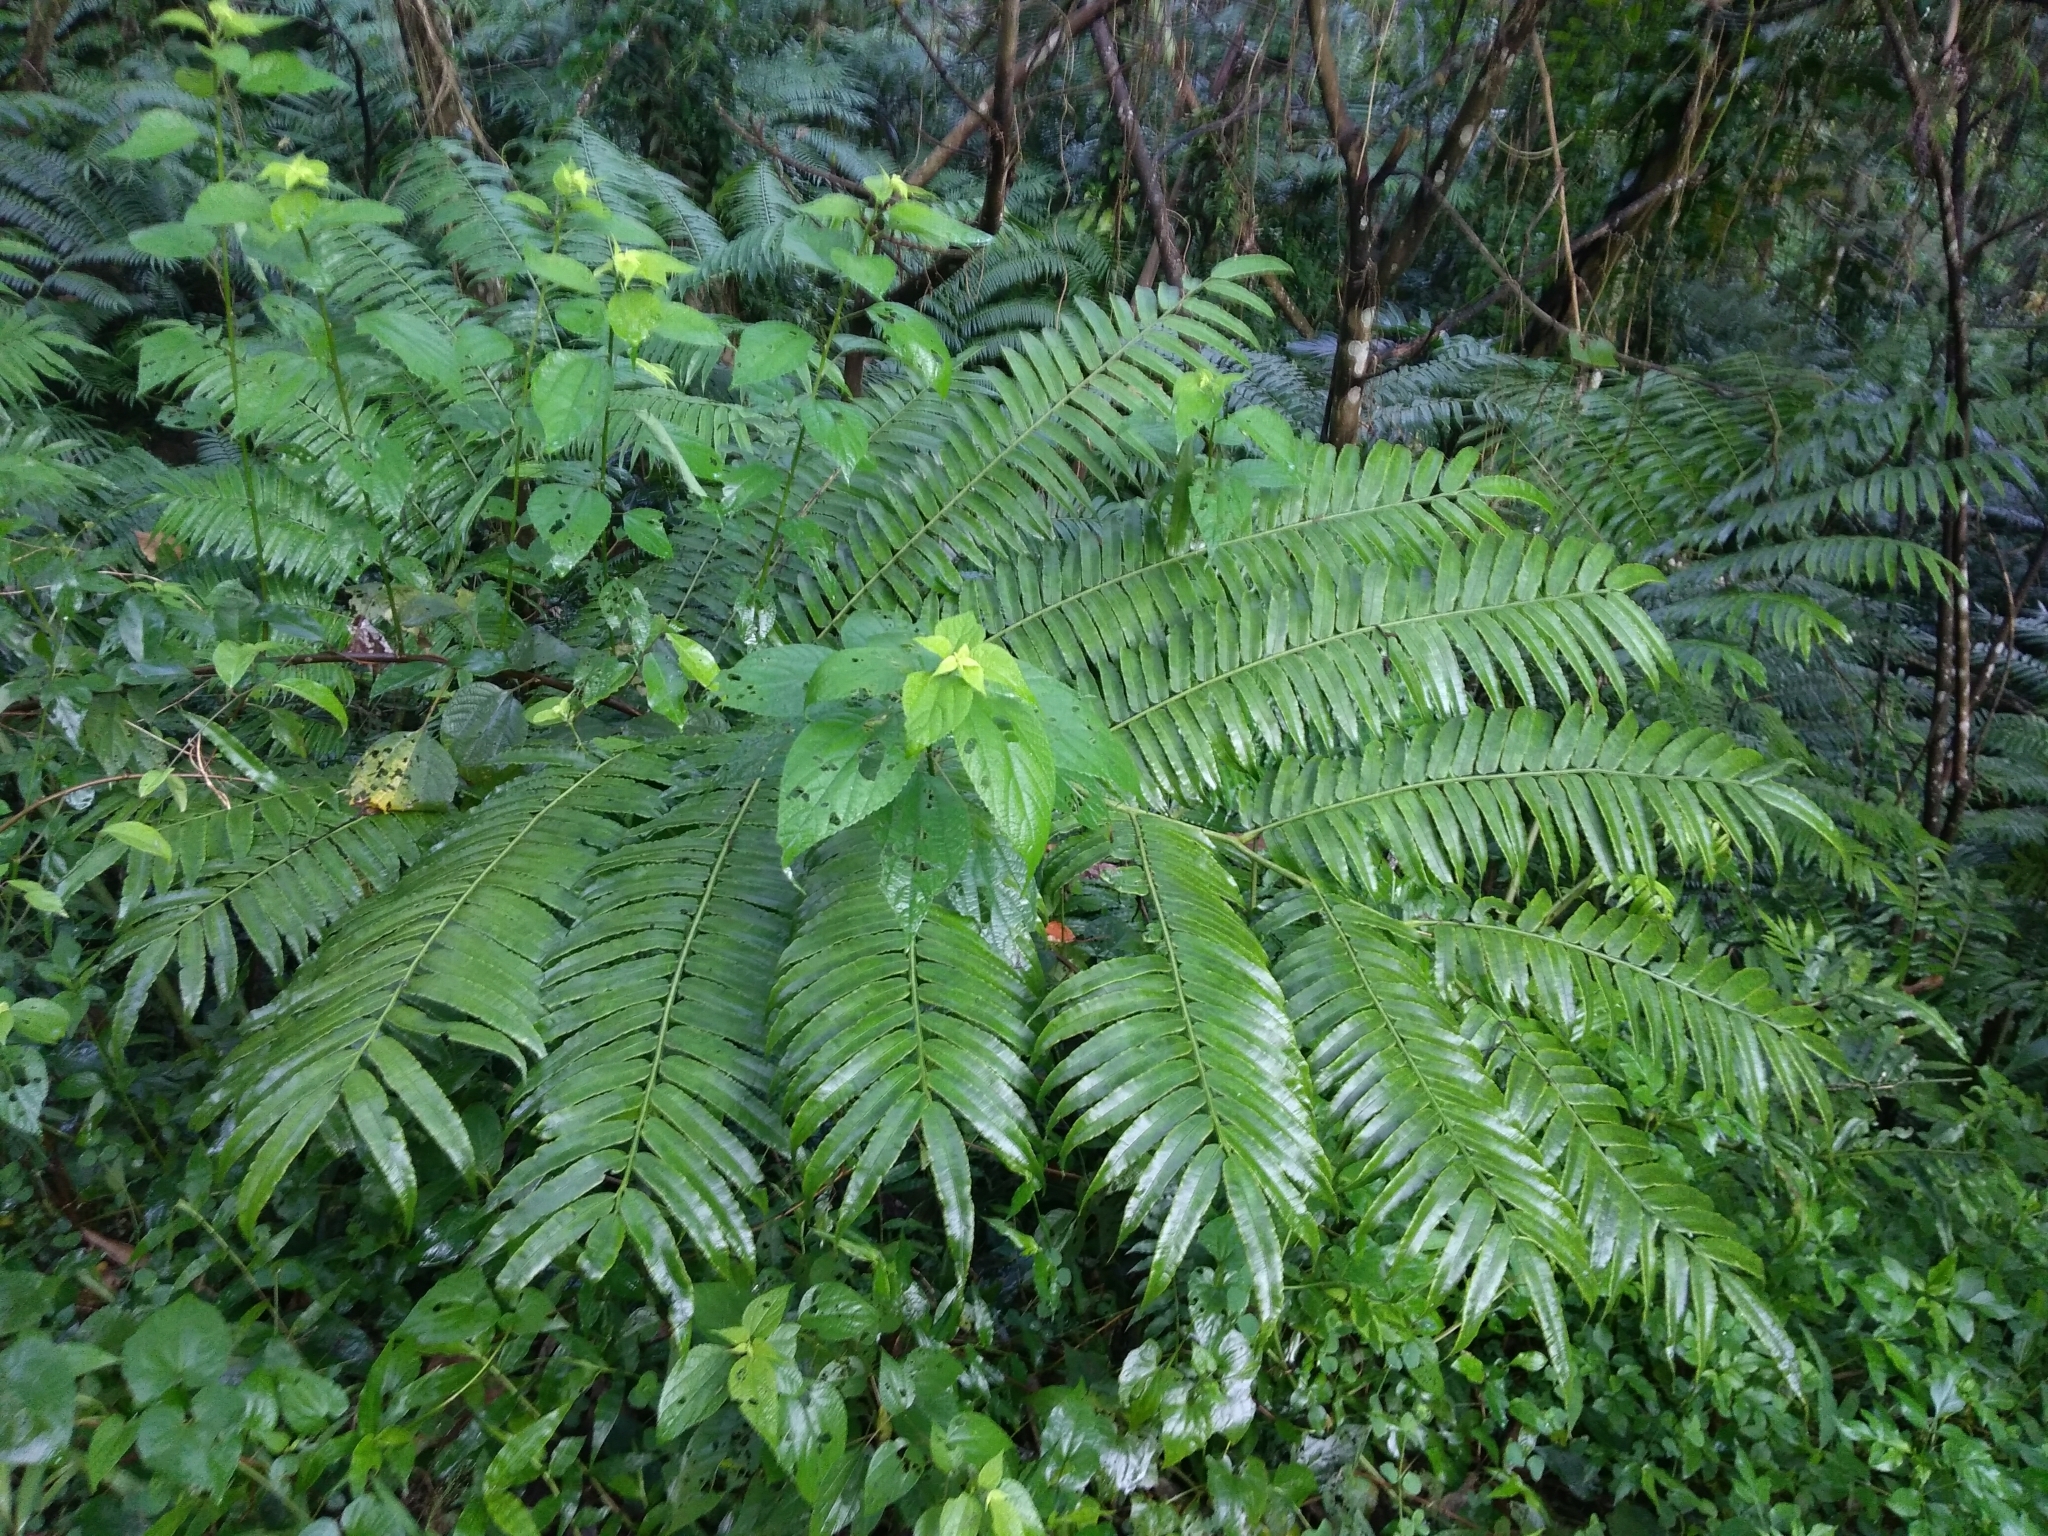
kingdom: Plantae
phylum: Tracheophyta
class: Polypodiopsida
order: Marattiales
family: Marattiaceae
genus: Angiopteris
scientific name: Angiopteris lygodiifolia
